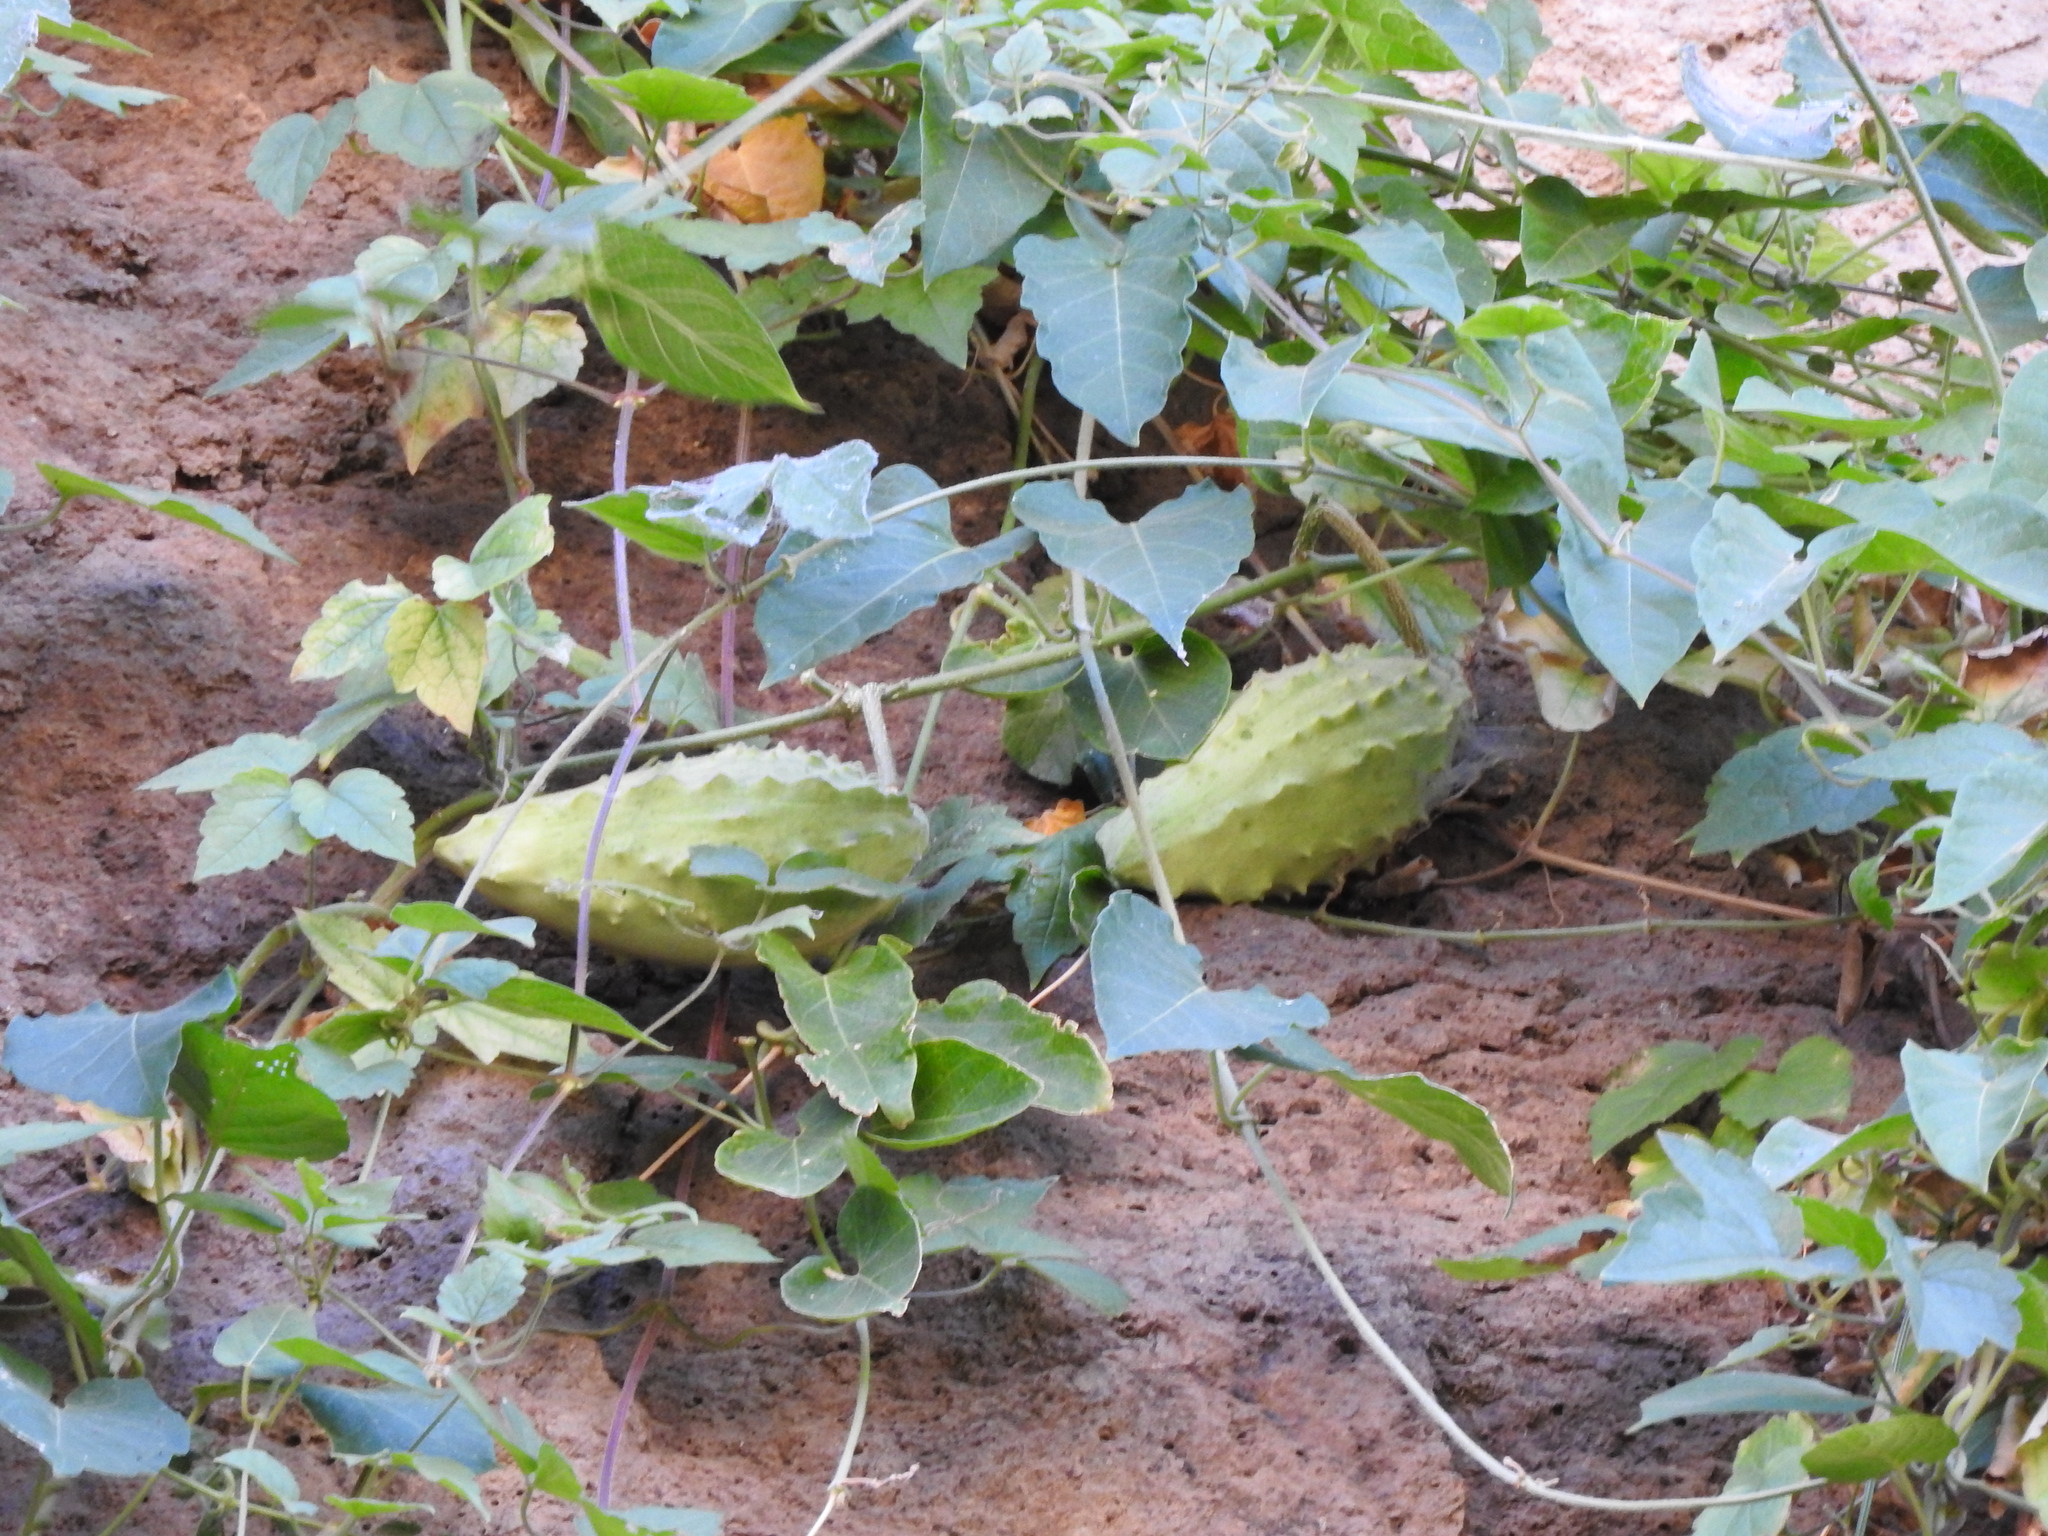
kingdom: Plantae
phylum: Tracheophyta
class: Magnoliopsida
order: Gentianales
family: Apocynaceae
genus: Gonolobus
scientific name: Gonolobus grandiflorus
